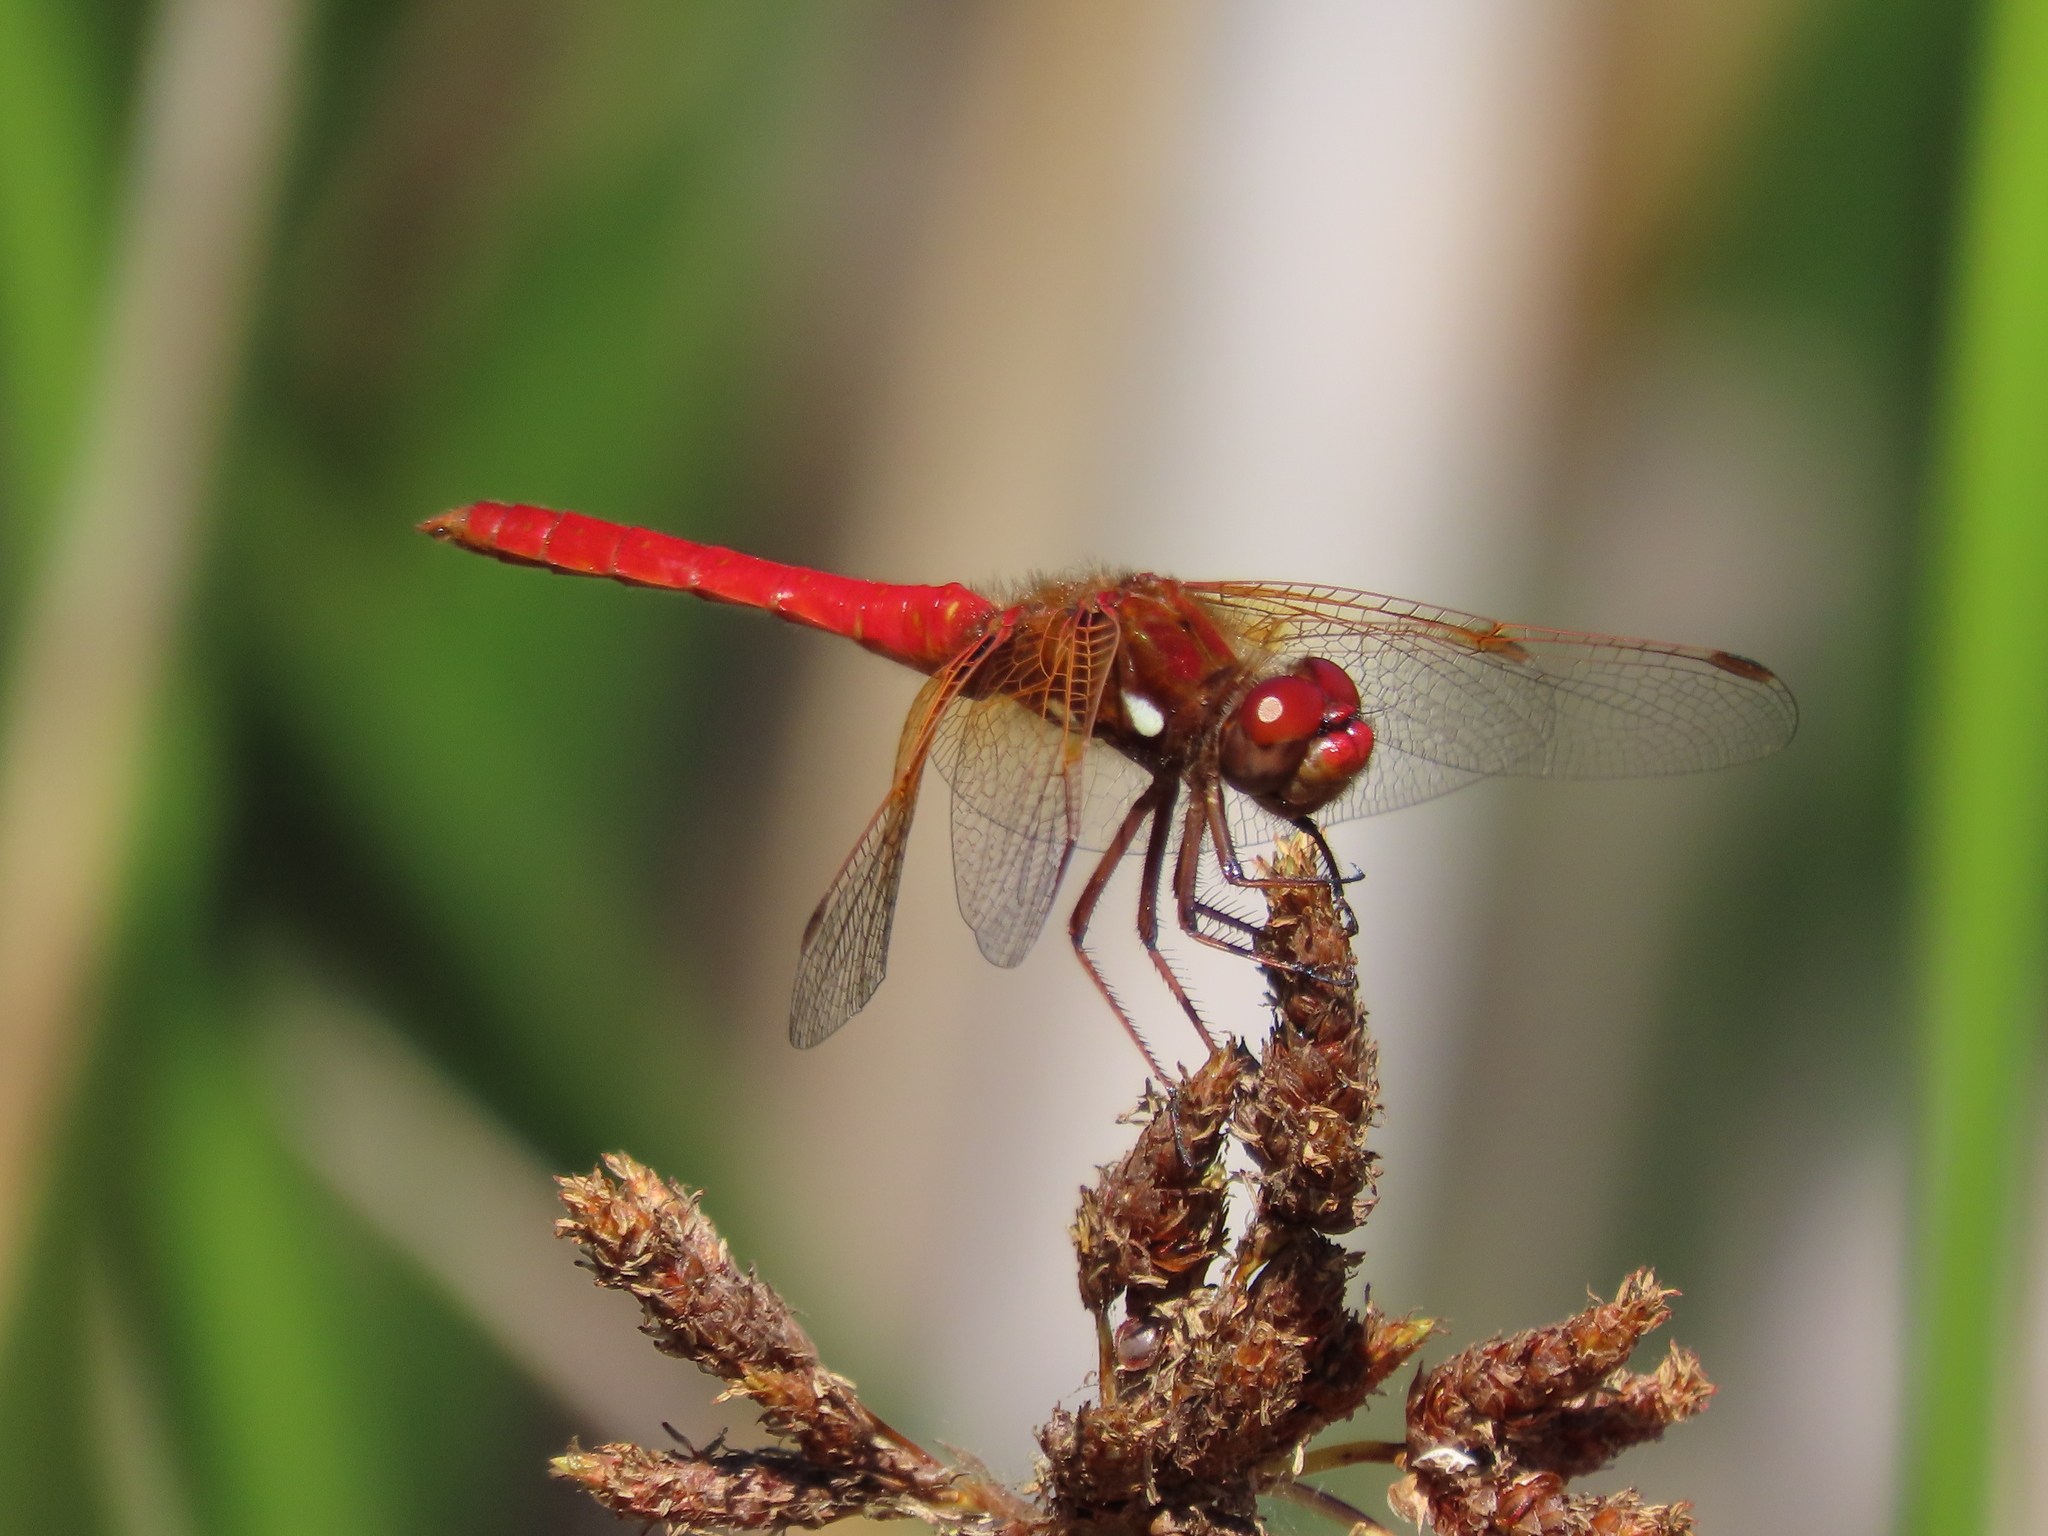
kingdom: Animalia
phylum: Arthropoda
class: Insecta
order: Odonata
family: Libellulidae
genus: Sympetrum
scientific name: Sympetrum illotum
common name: Cardinal meadowhawk
